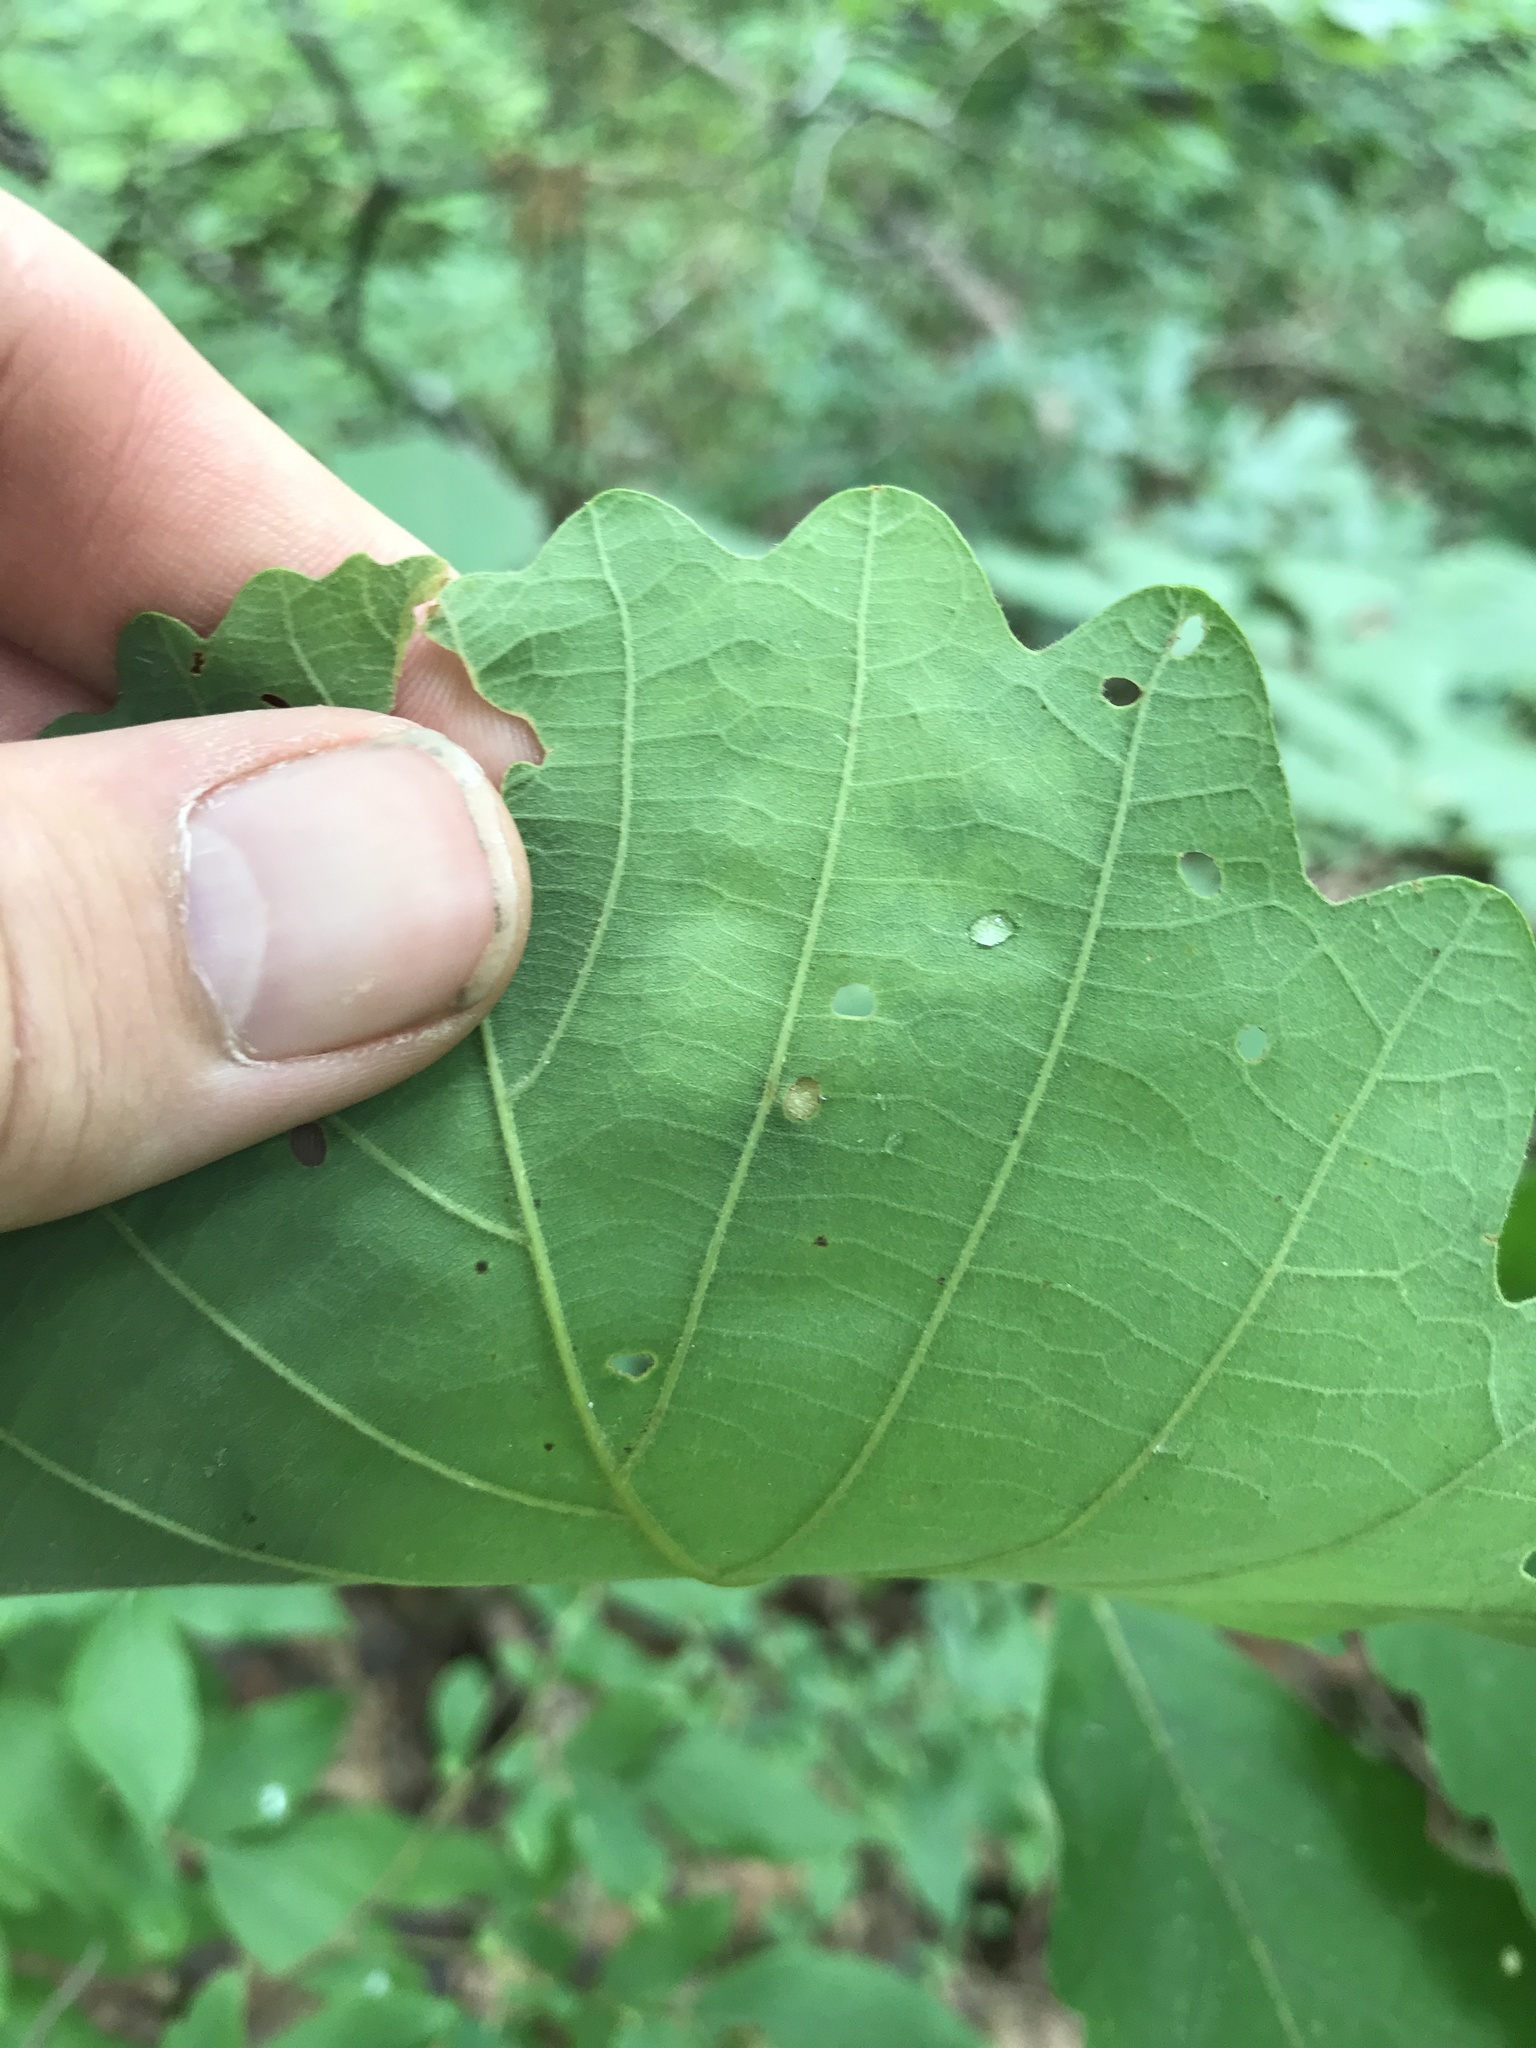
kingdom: Animalia
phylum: Arthropoda
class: Insecta
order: Hymenoptera
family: Cynipidae
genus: Acraspis
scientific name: Acraspis quercushirta
